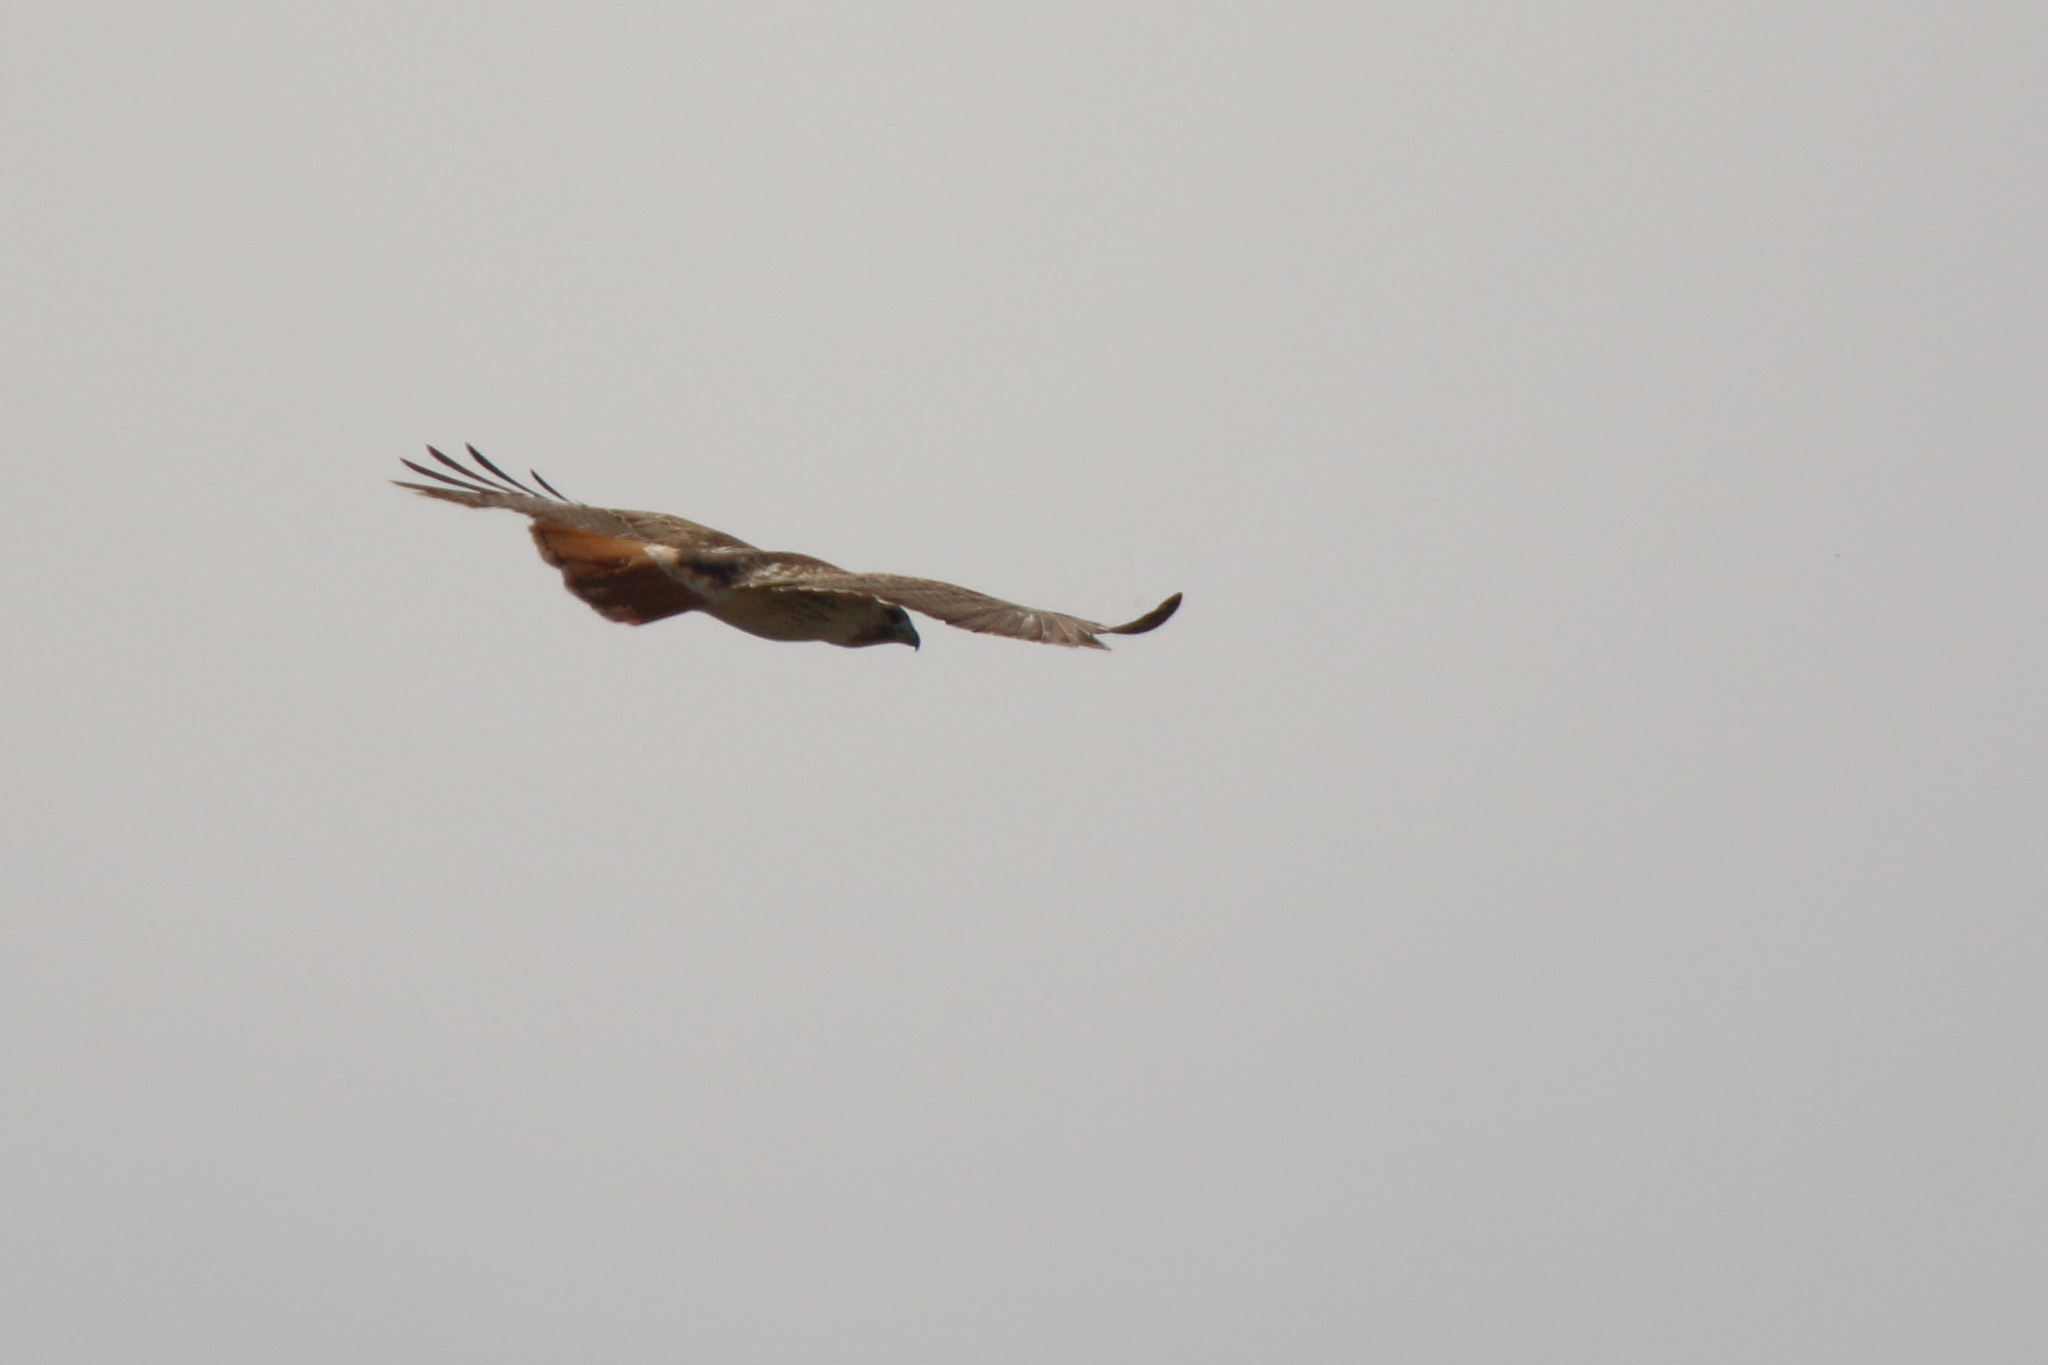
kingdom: Animalia
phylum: Chordata
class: Aves
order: Accipitriformes
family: Accipitridae
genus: Buteo
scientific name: Buteo jamaicensis
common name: Red-tailed hawk
